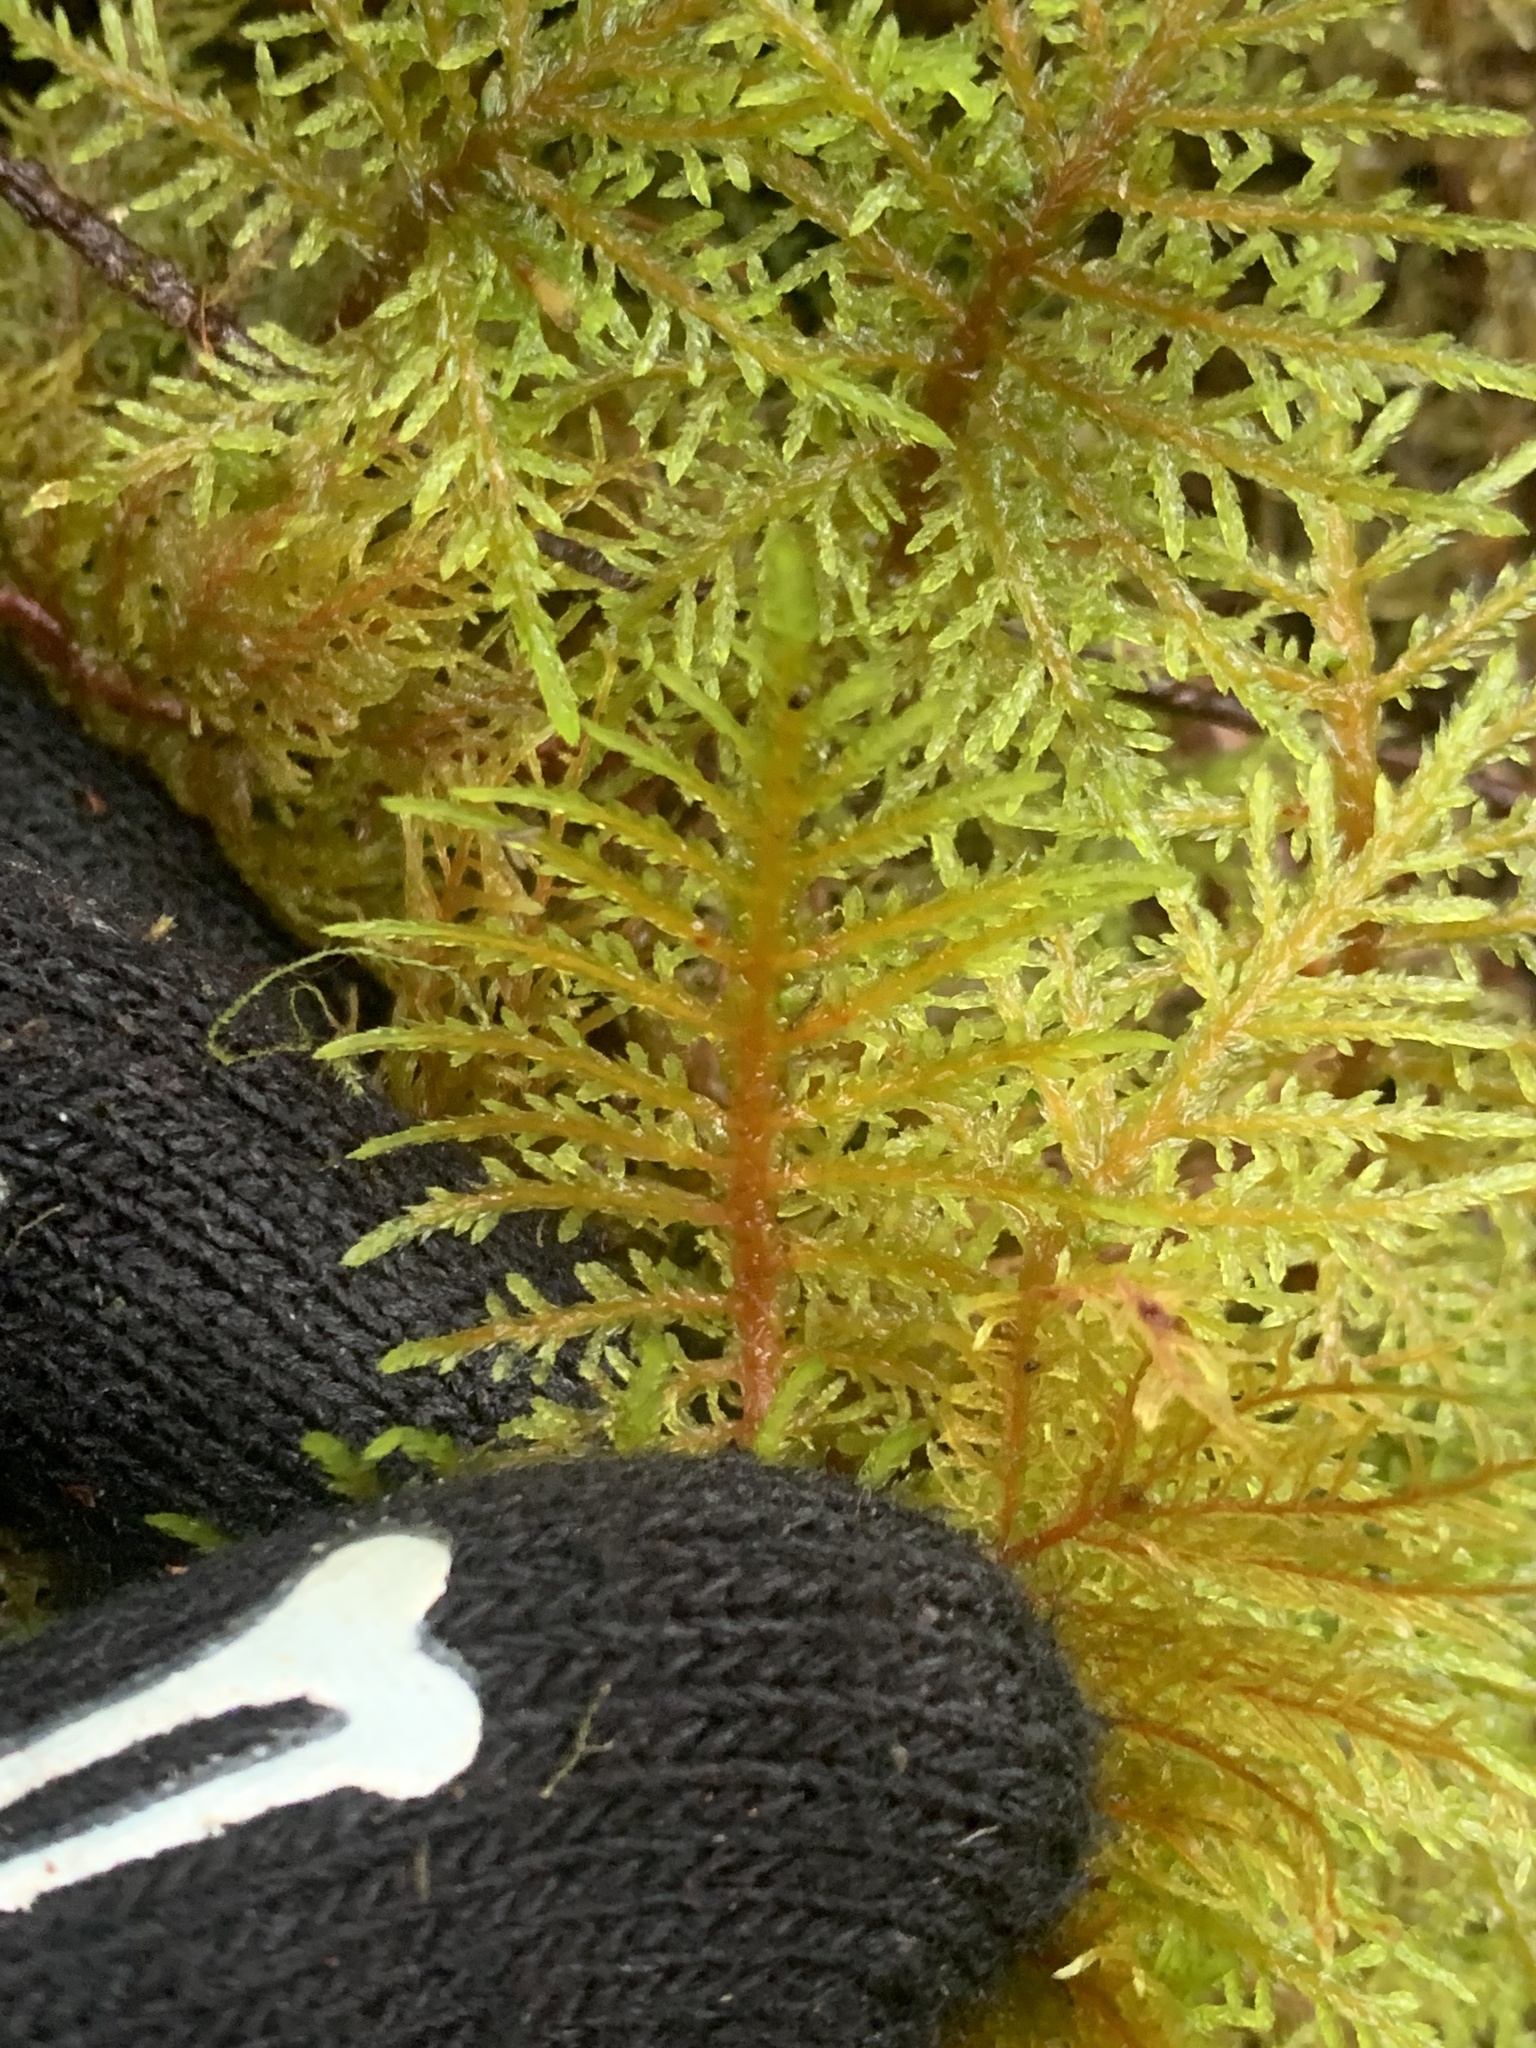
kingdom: Plantae
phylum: Bryophyta
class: Bryopsida
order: Hypnales
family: Hylocomiaceae
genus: Hylocomium
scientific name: Hylocomium splendens
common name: Stairstep moss
